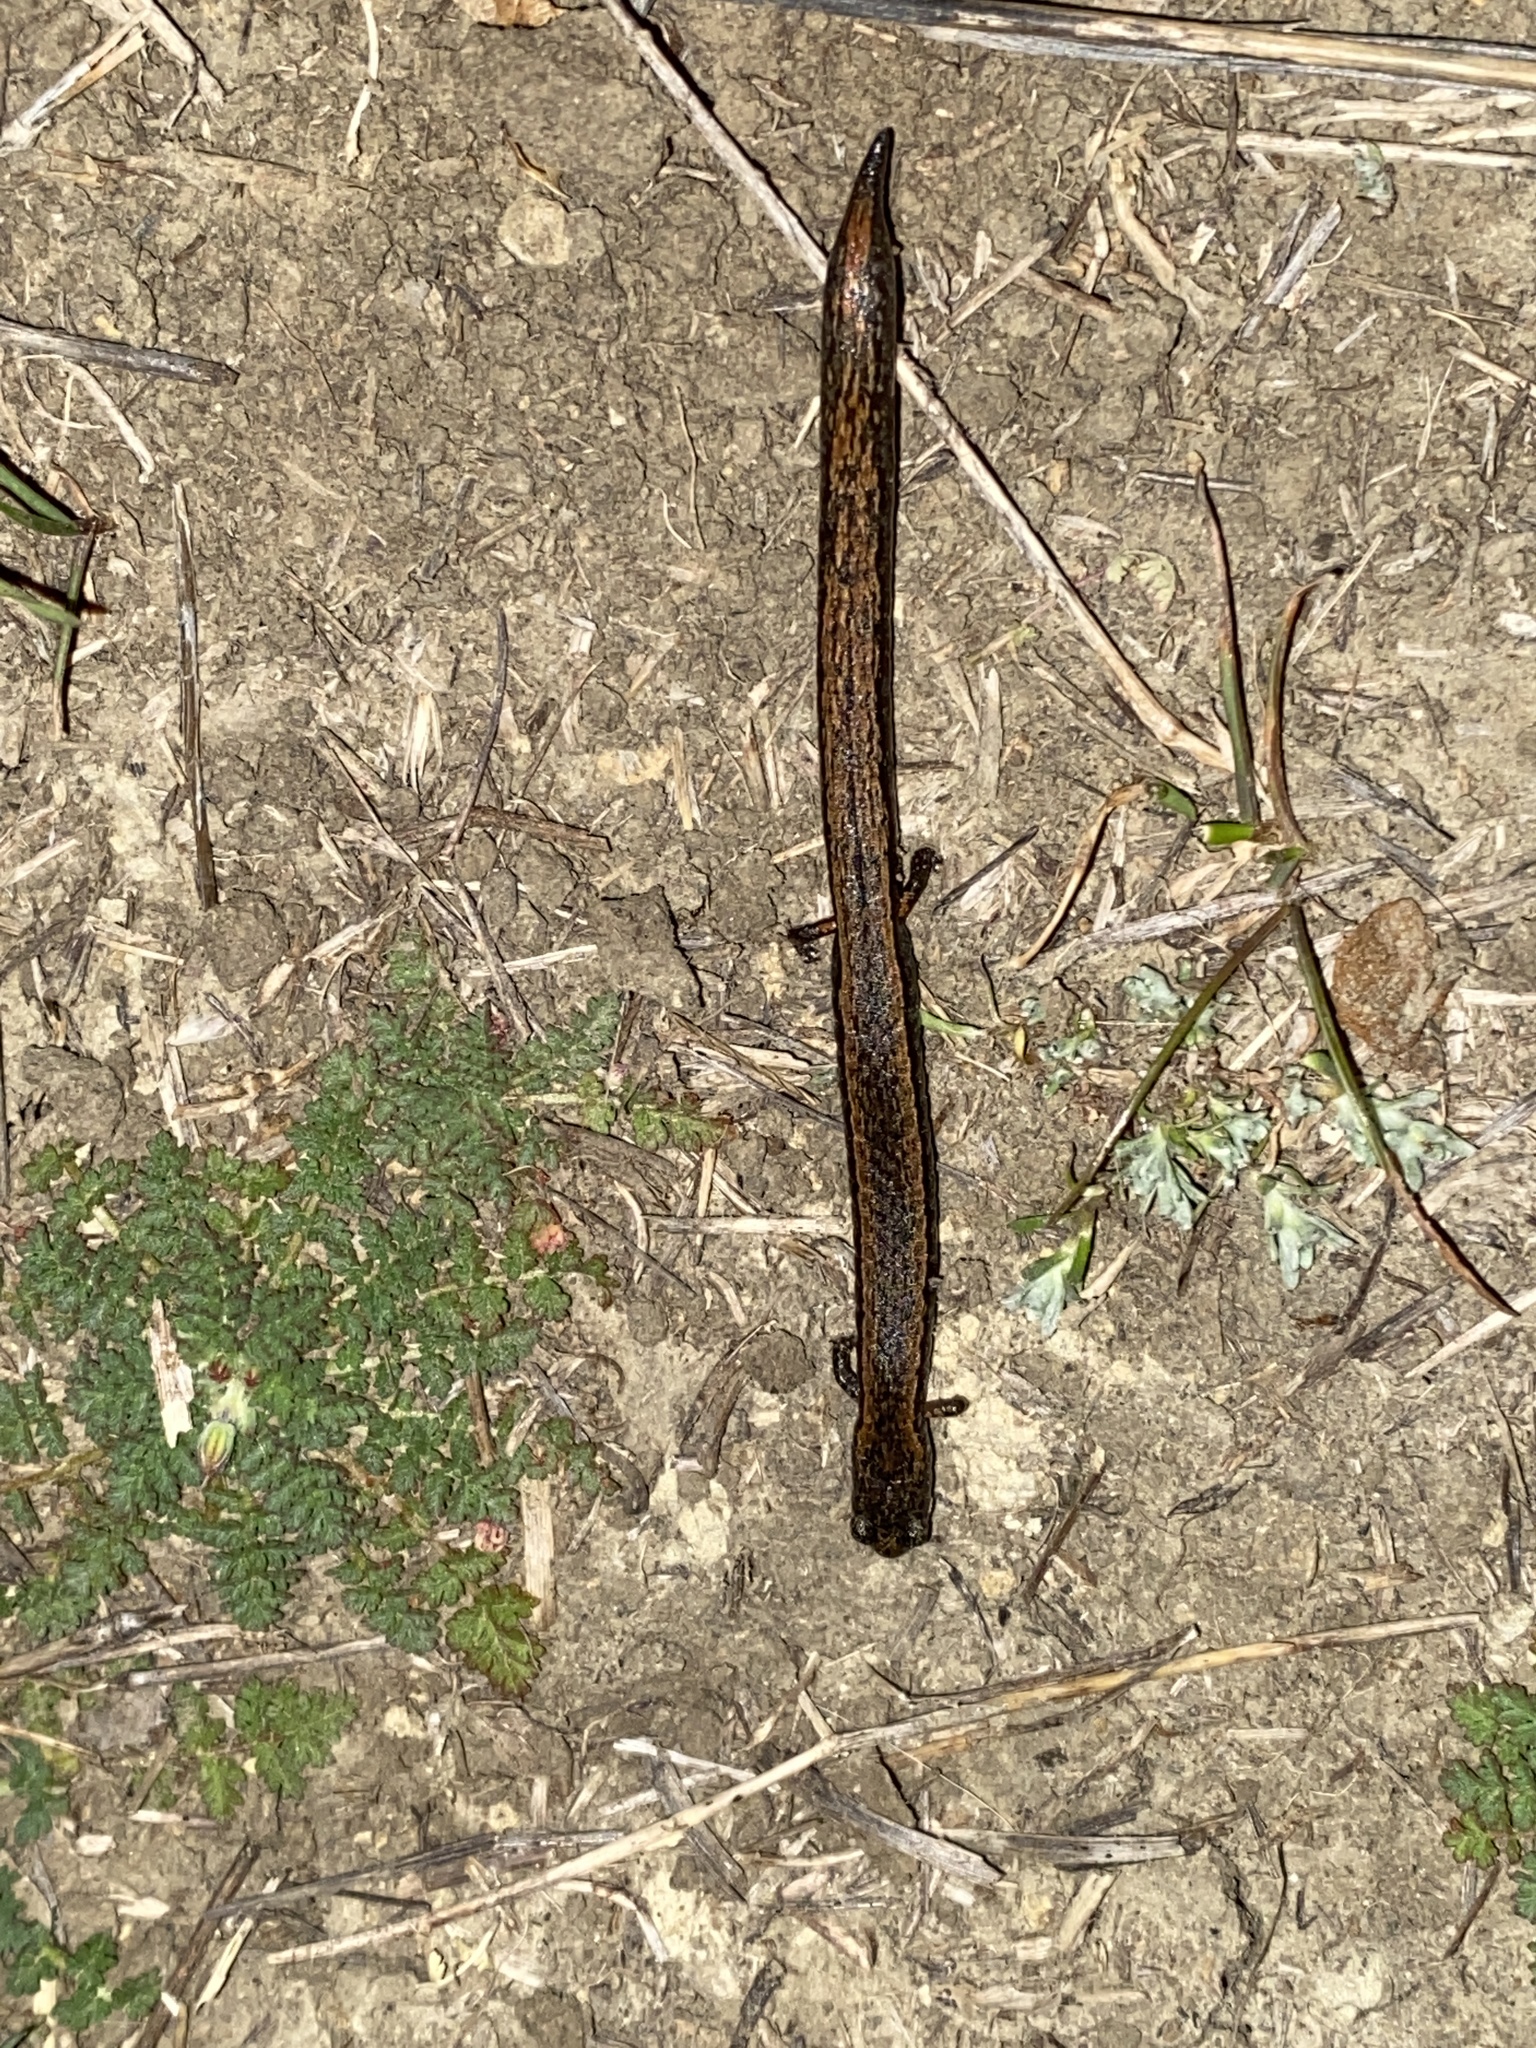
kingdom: Animalia
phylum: Chordata
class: Amphibia
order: Caudata
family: Plethodontidae
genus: Batrachoseps
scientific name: Batrachoseps attenuatus
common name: California slender salamander
